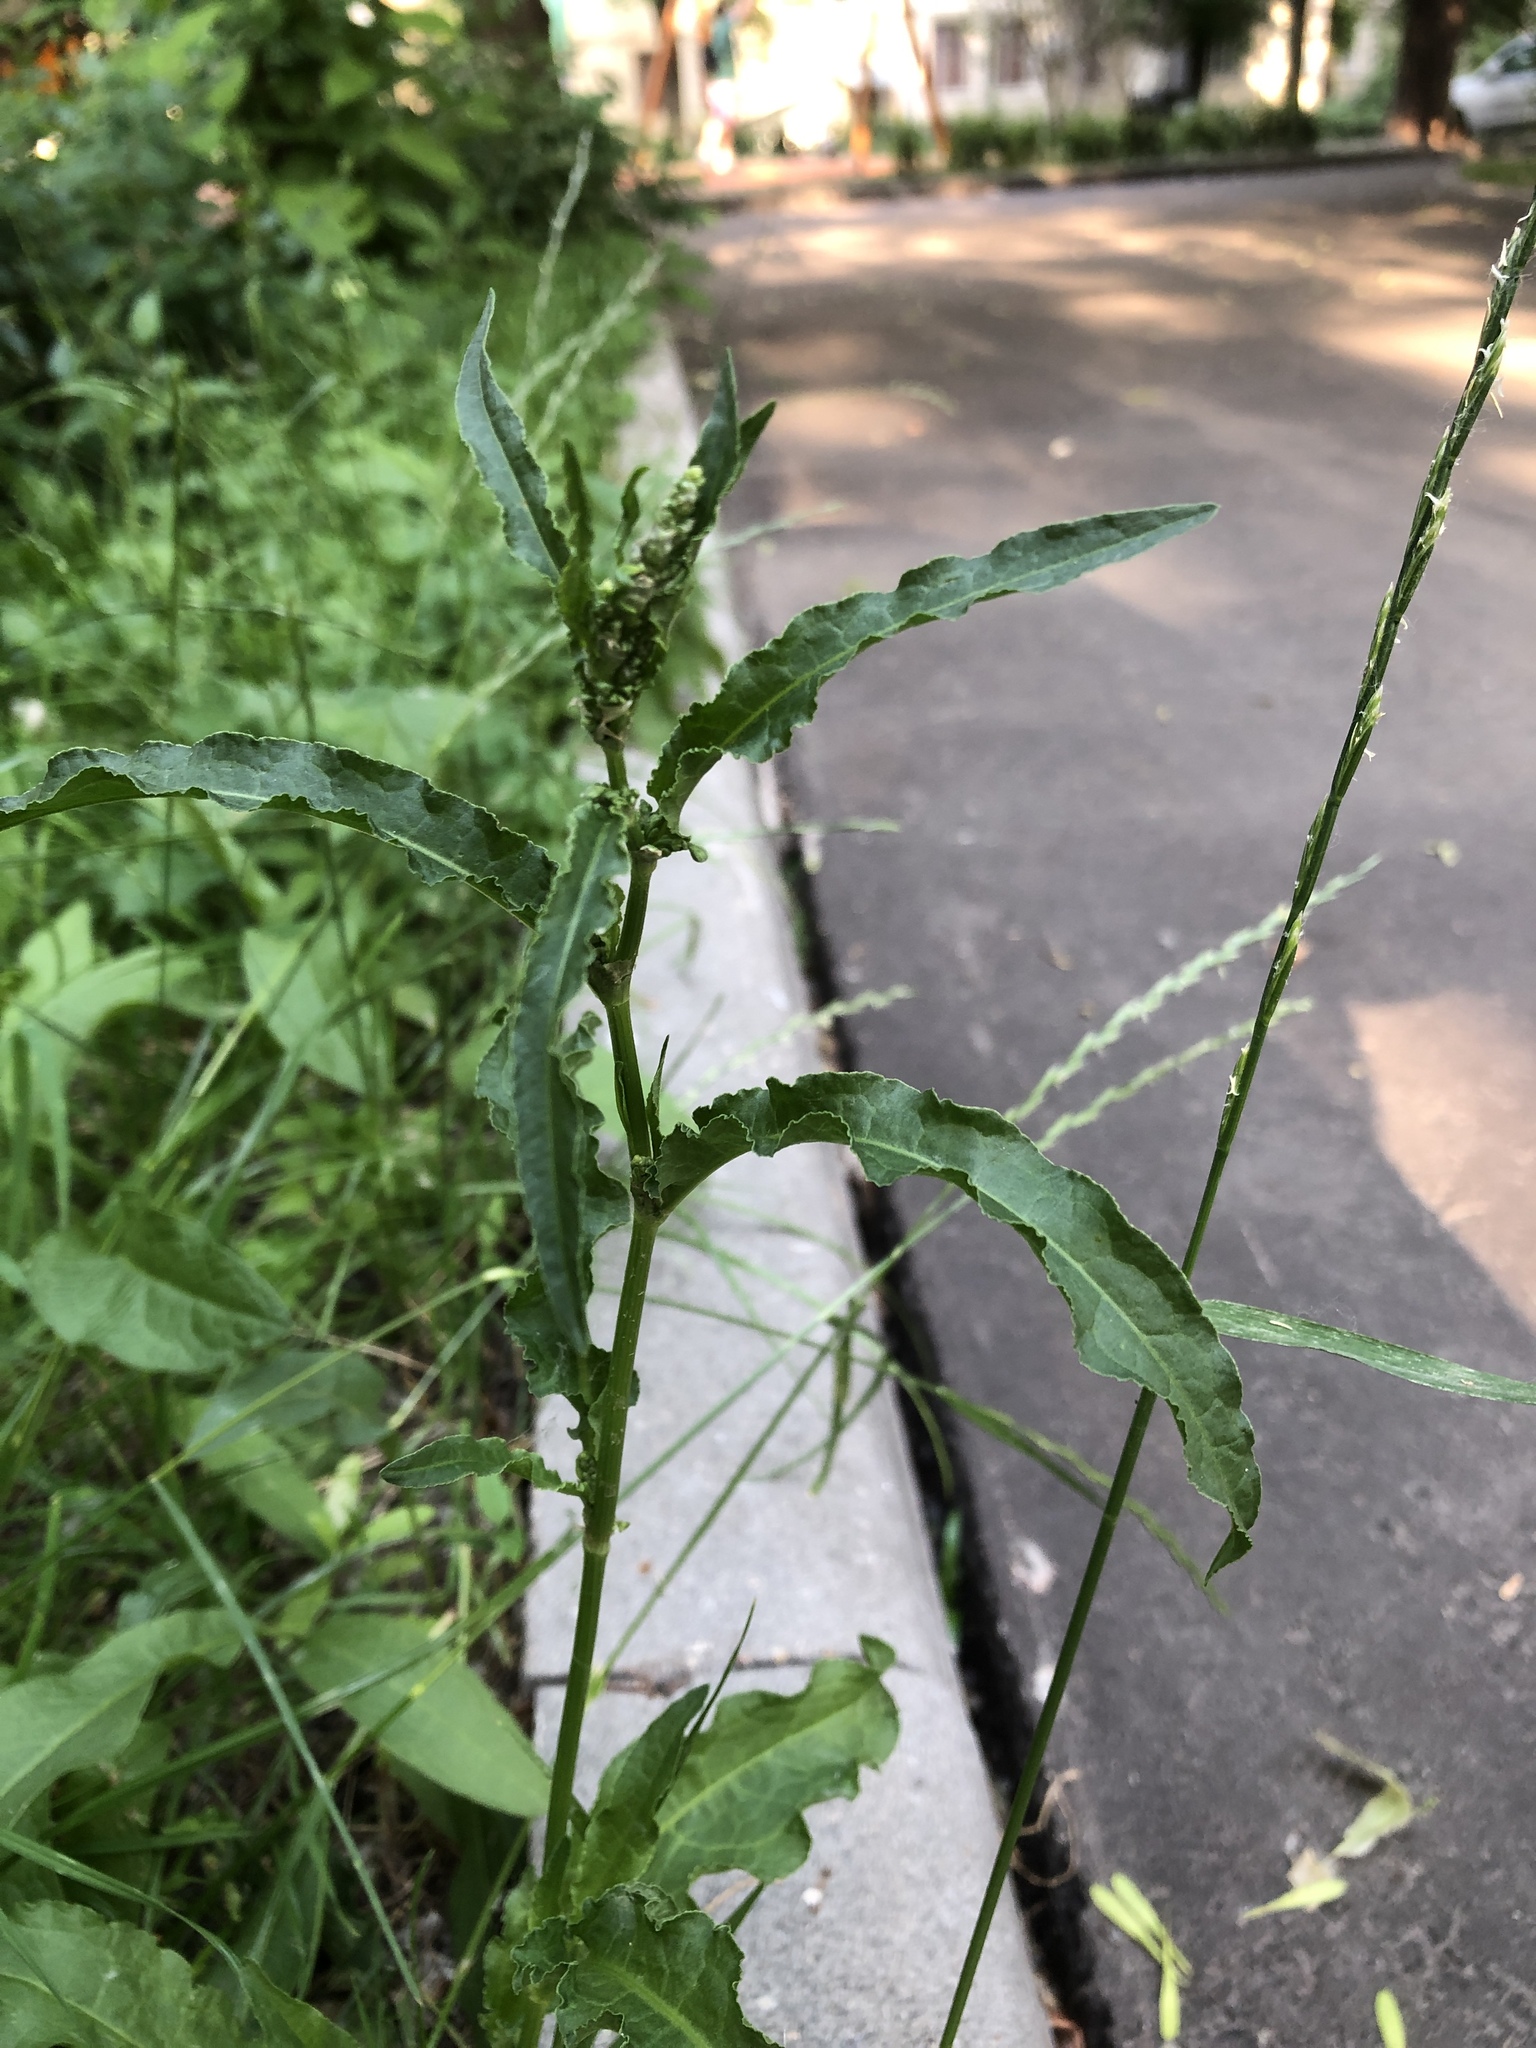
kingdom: Plantae
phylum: Tracheophyta
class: Magnoliopsida
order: Caryophyllales
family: Polygonaceae
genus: Rumex
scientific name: Rumex crispus
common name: Curled dock
